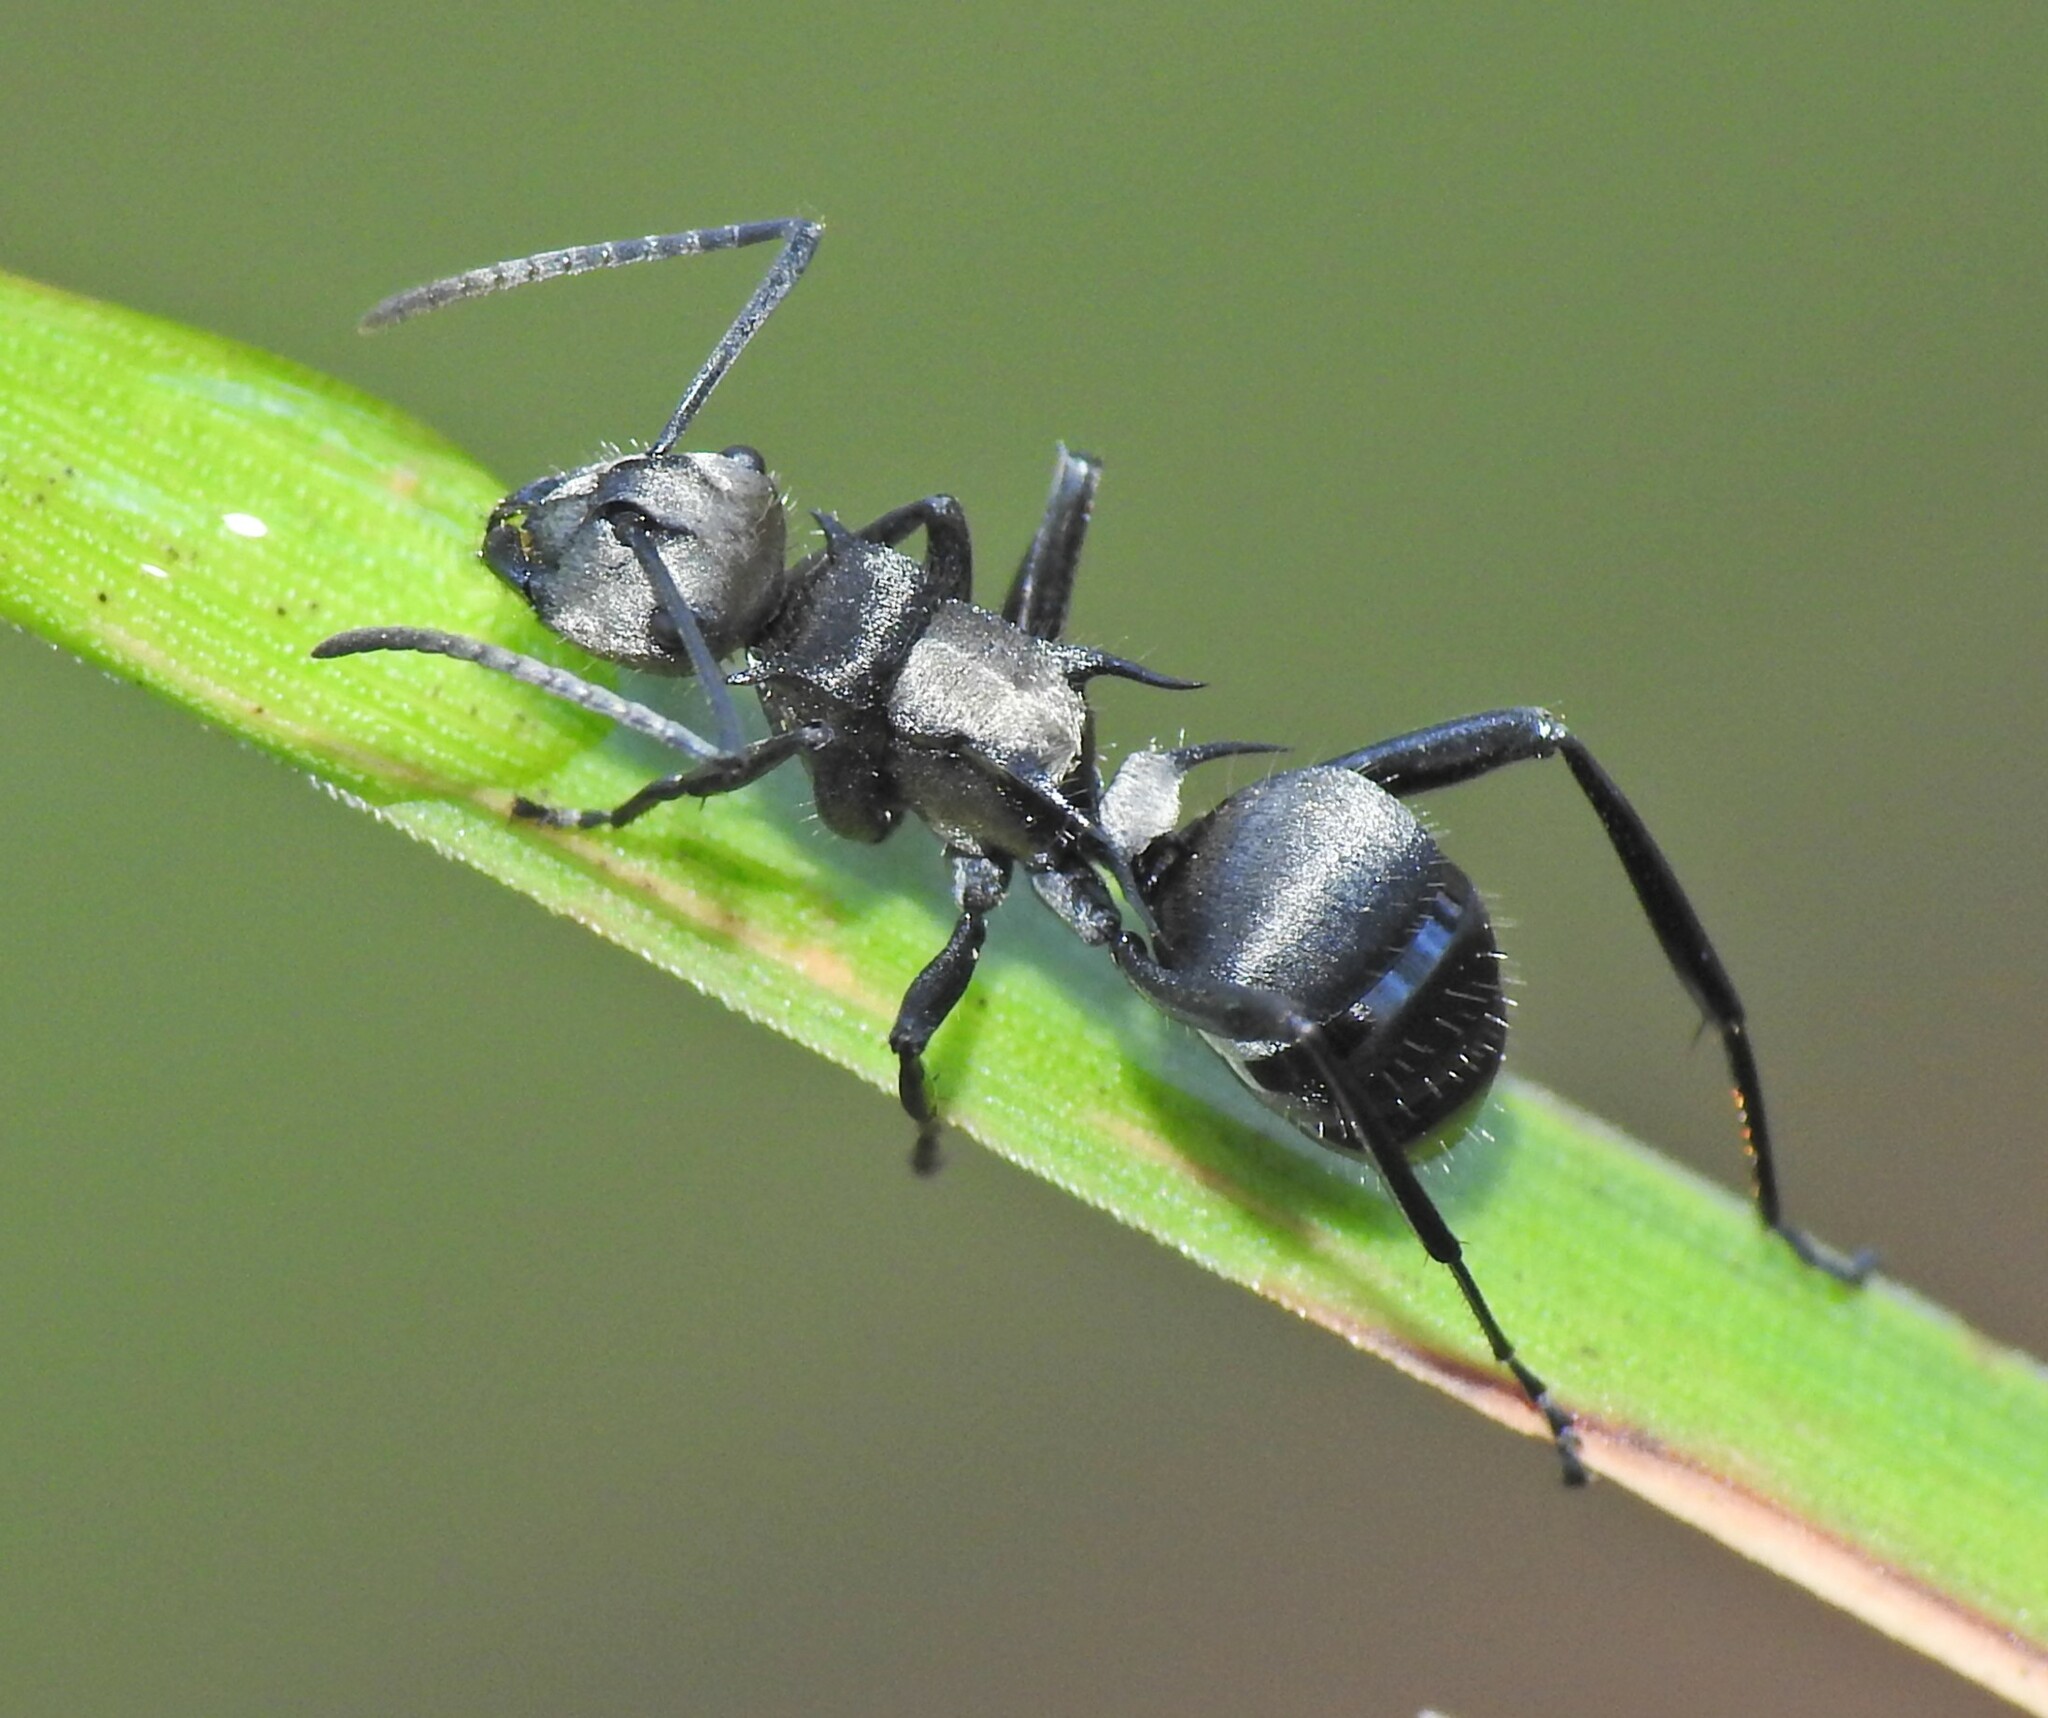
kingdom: Animalia
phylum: Arthropoda
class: Insecta
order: Hymenoptera
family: Formicidae
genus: Polyrhachis
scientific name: Polyrhachis daemeli
